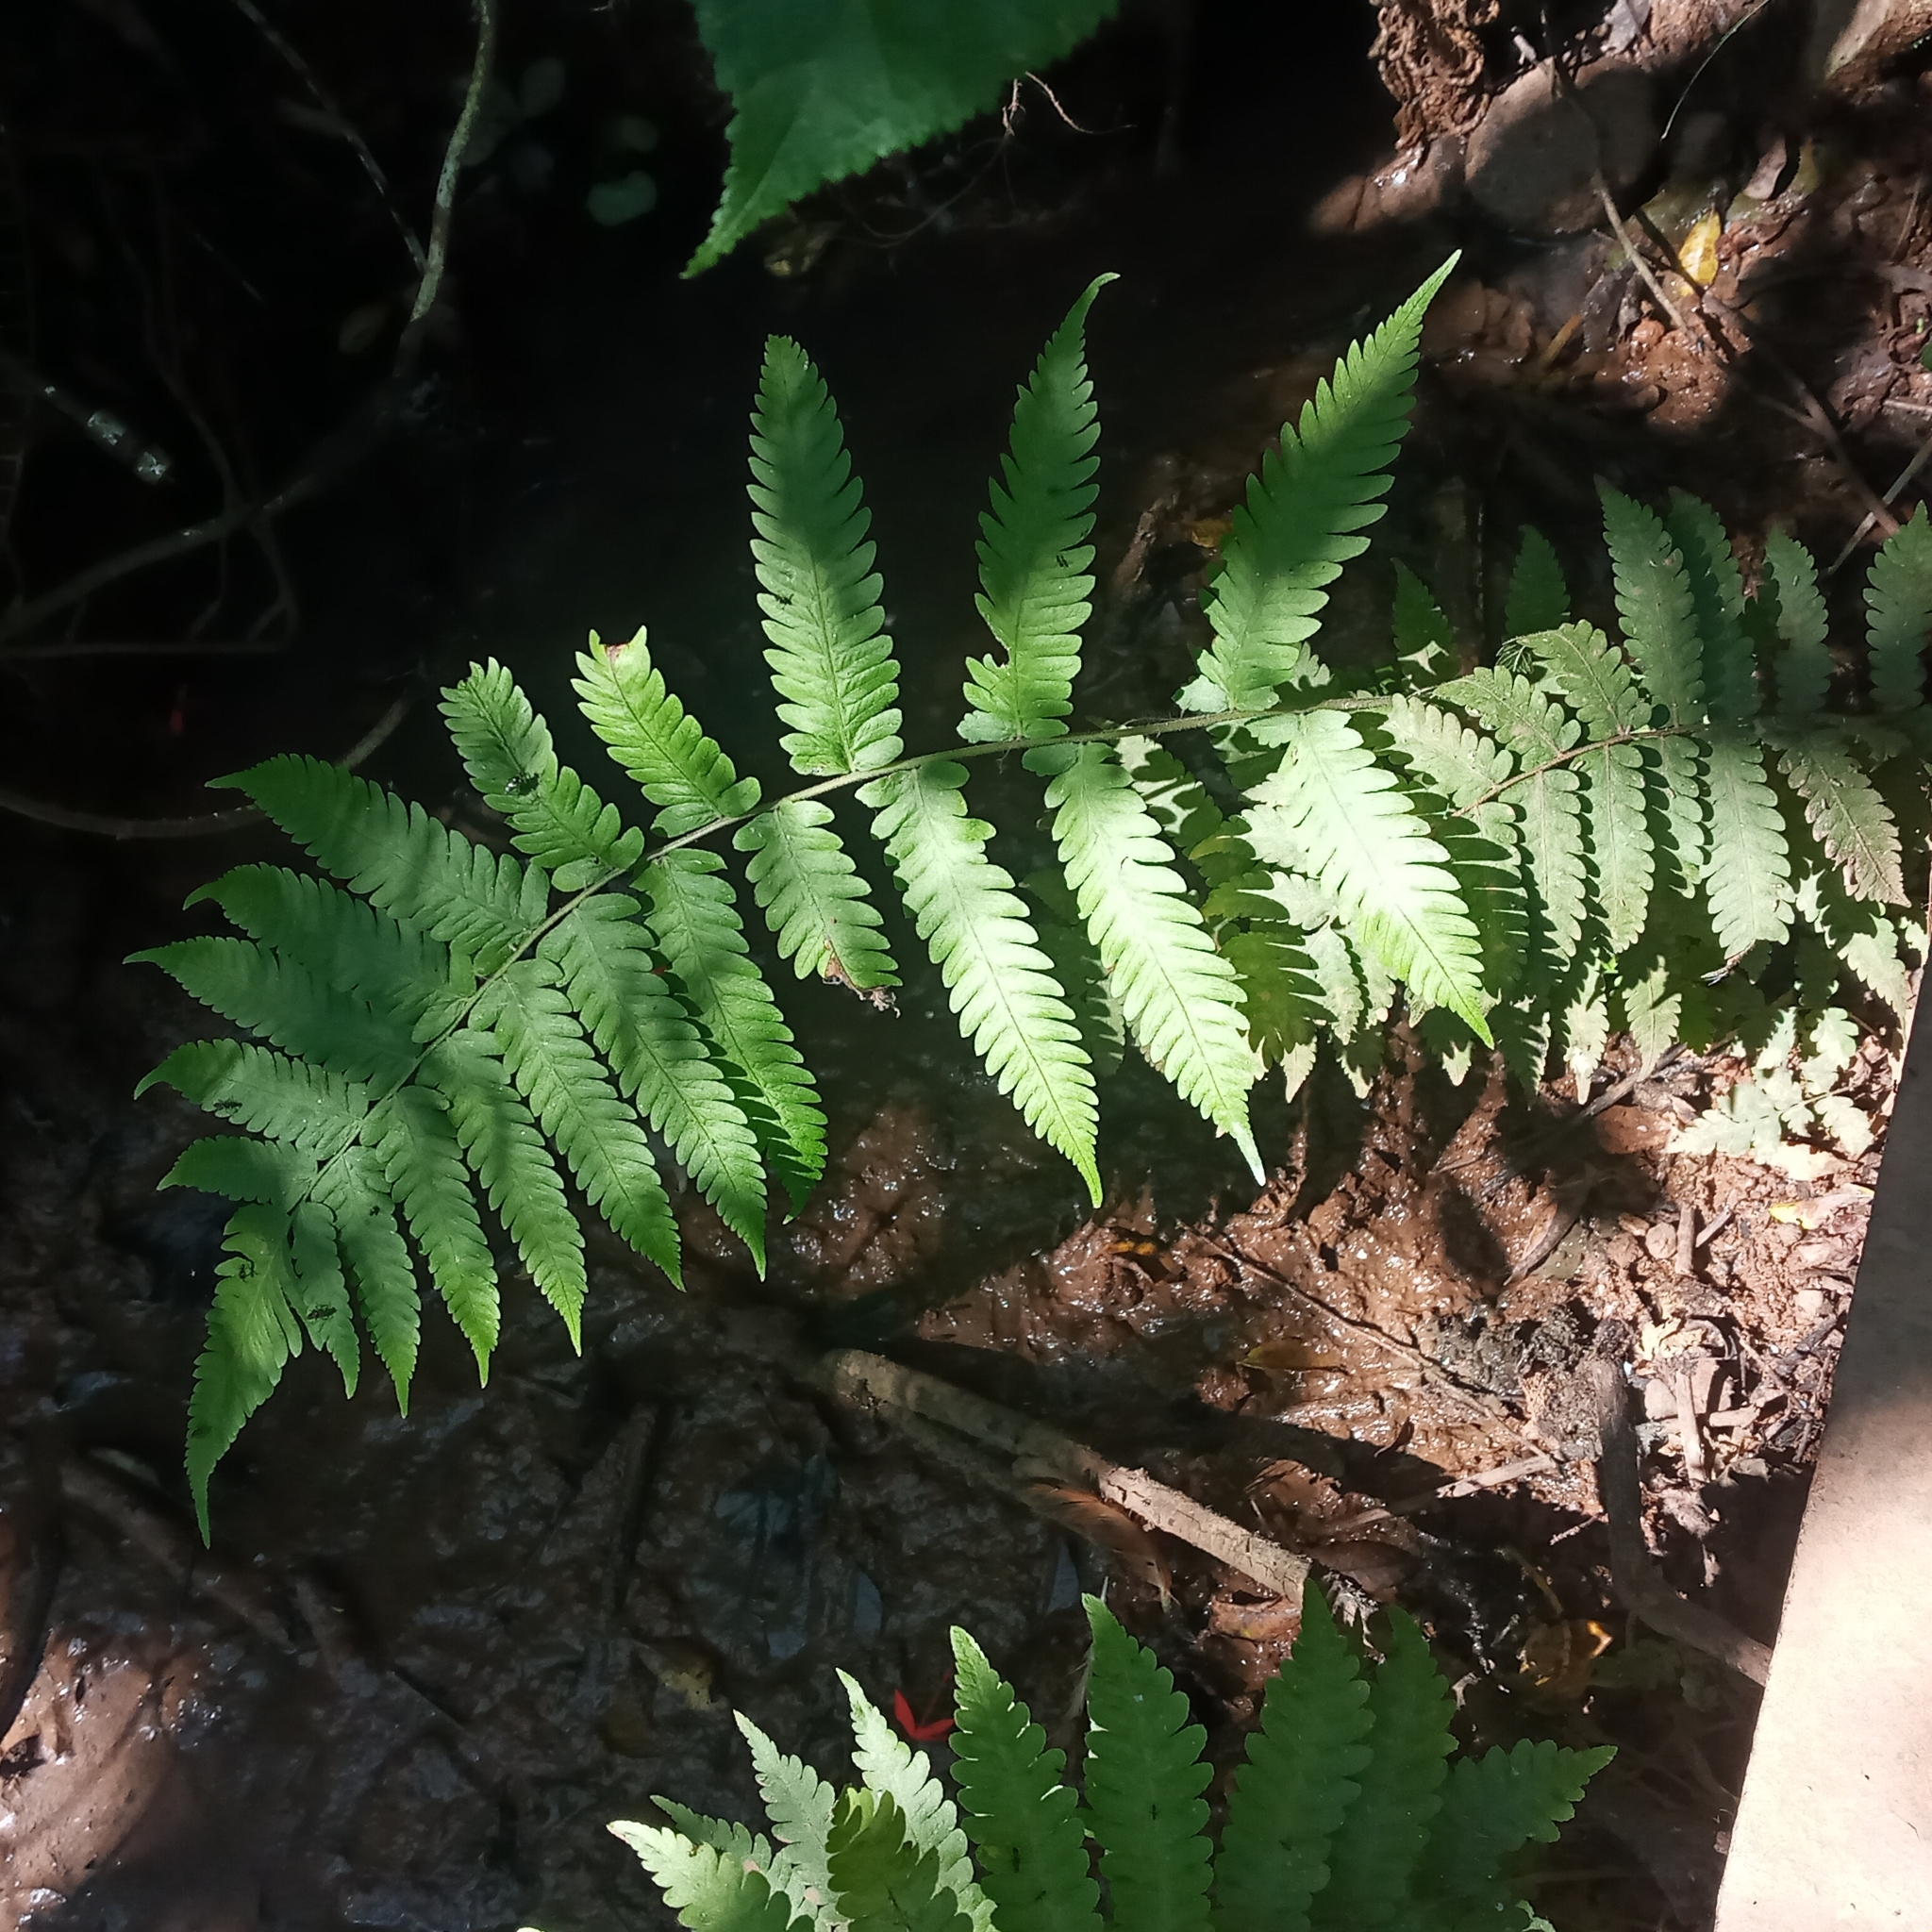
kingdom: Plantae
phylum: Tracheophyta
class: Polypodiopsida
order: Polypodiales
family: Thelypteridaceae
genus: Christella
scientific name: Christella dentata
